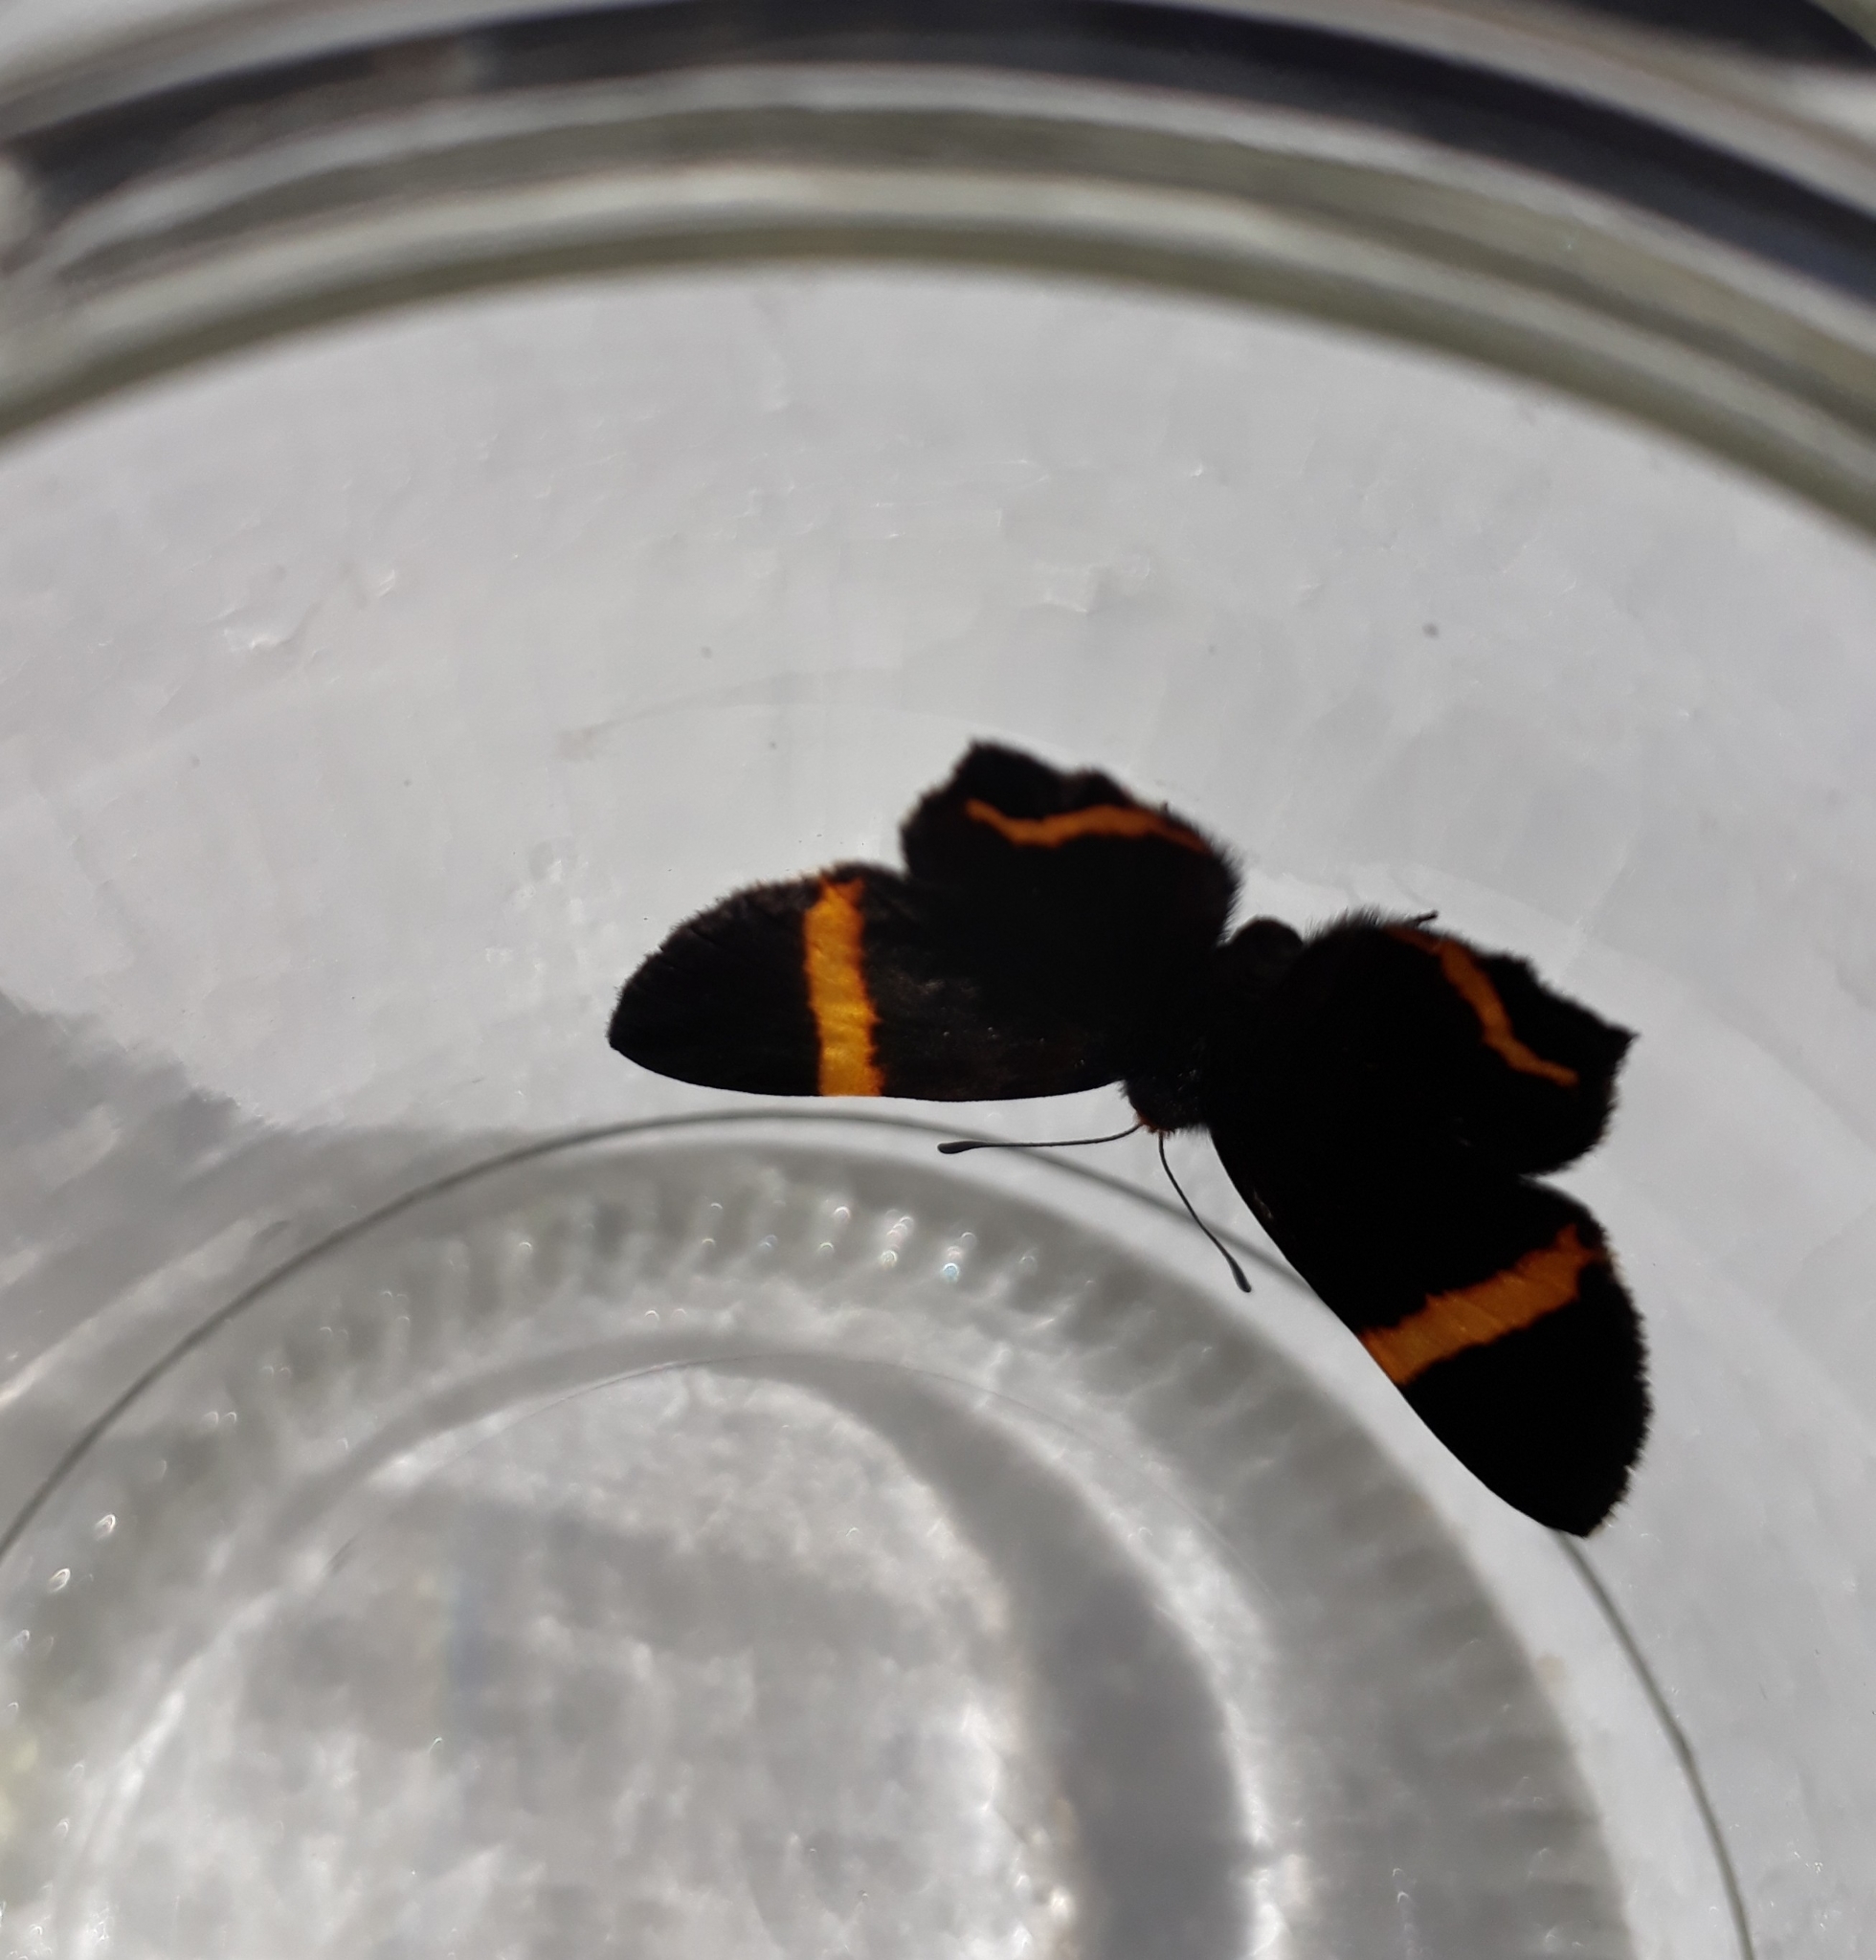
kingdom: Animalia
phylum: Arthropoda
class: Insecta
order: Lepidoptera
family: Riodinidae
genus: Riodina
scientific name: Riodina lysippoides
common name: Little dancer metalmark
